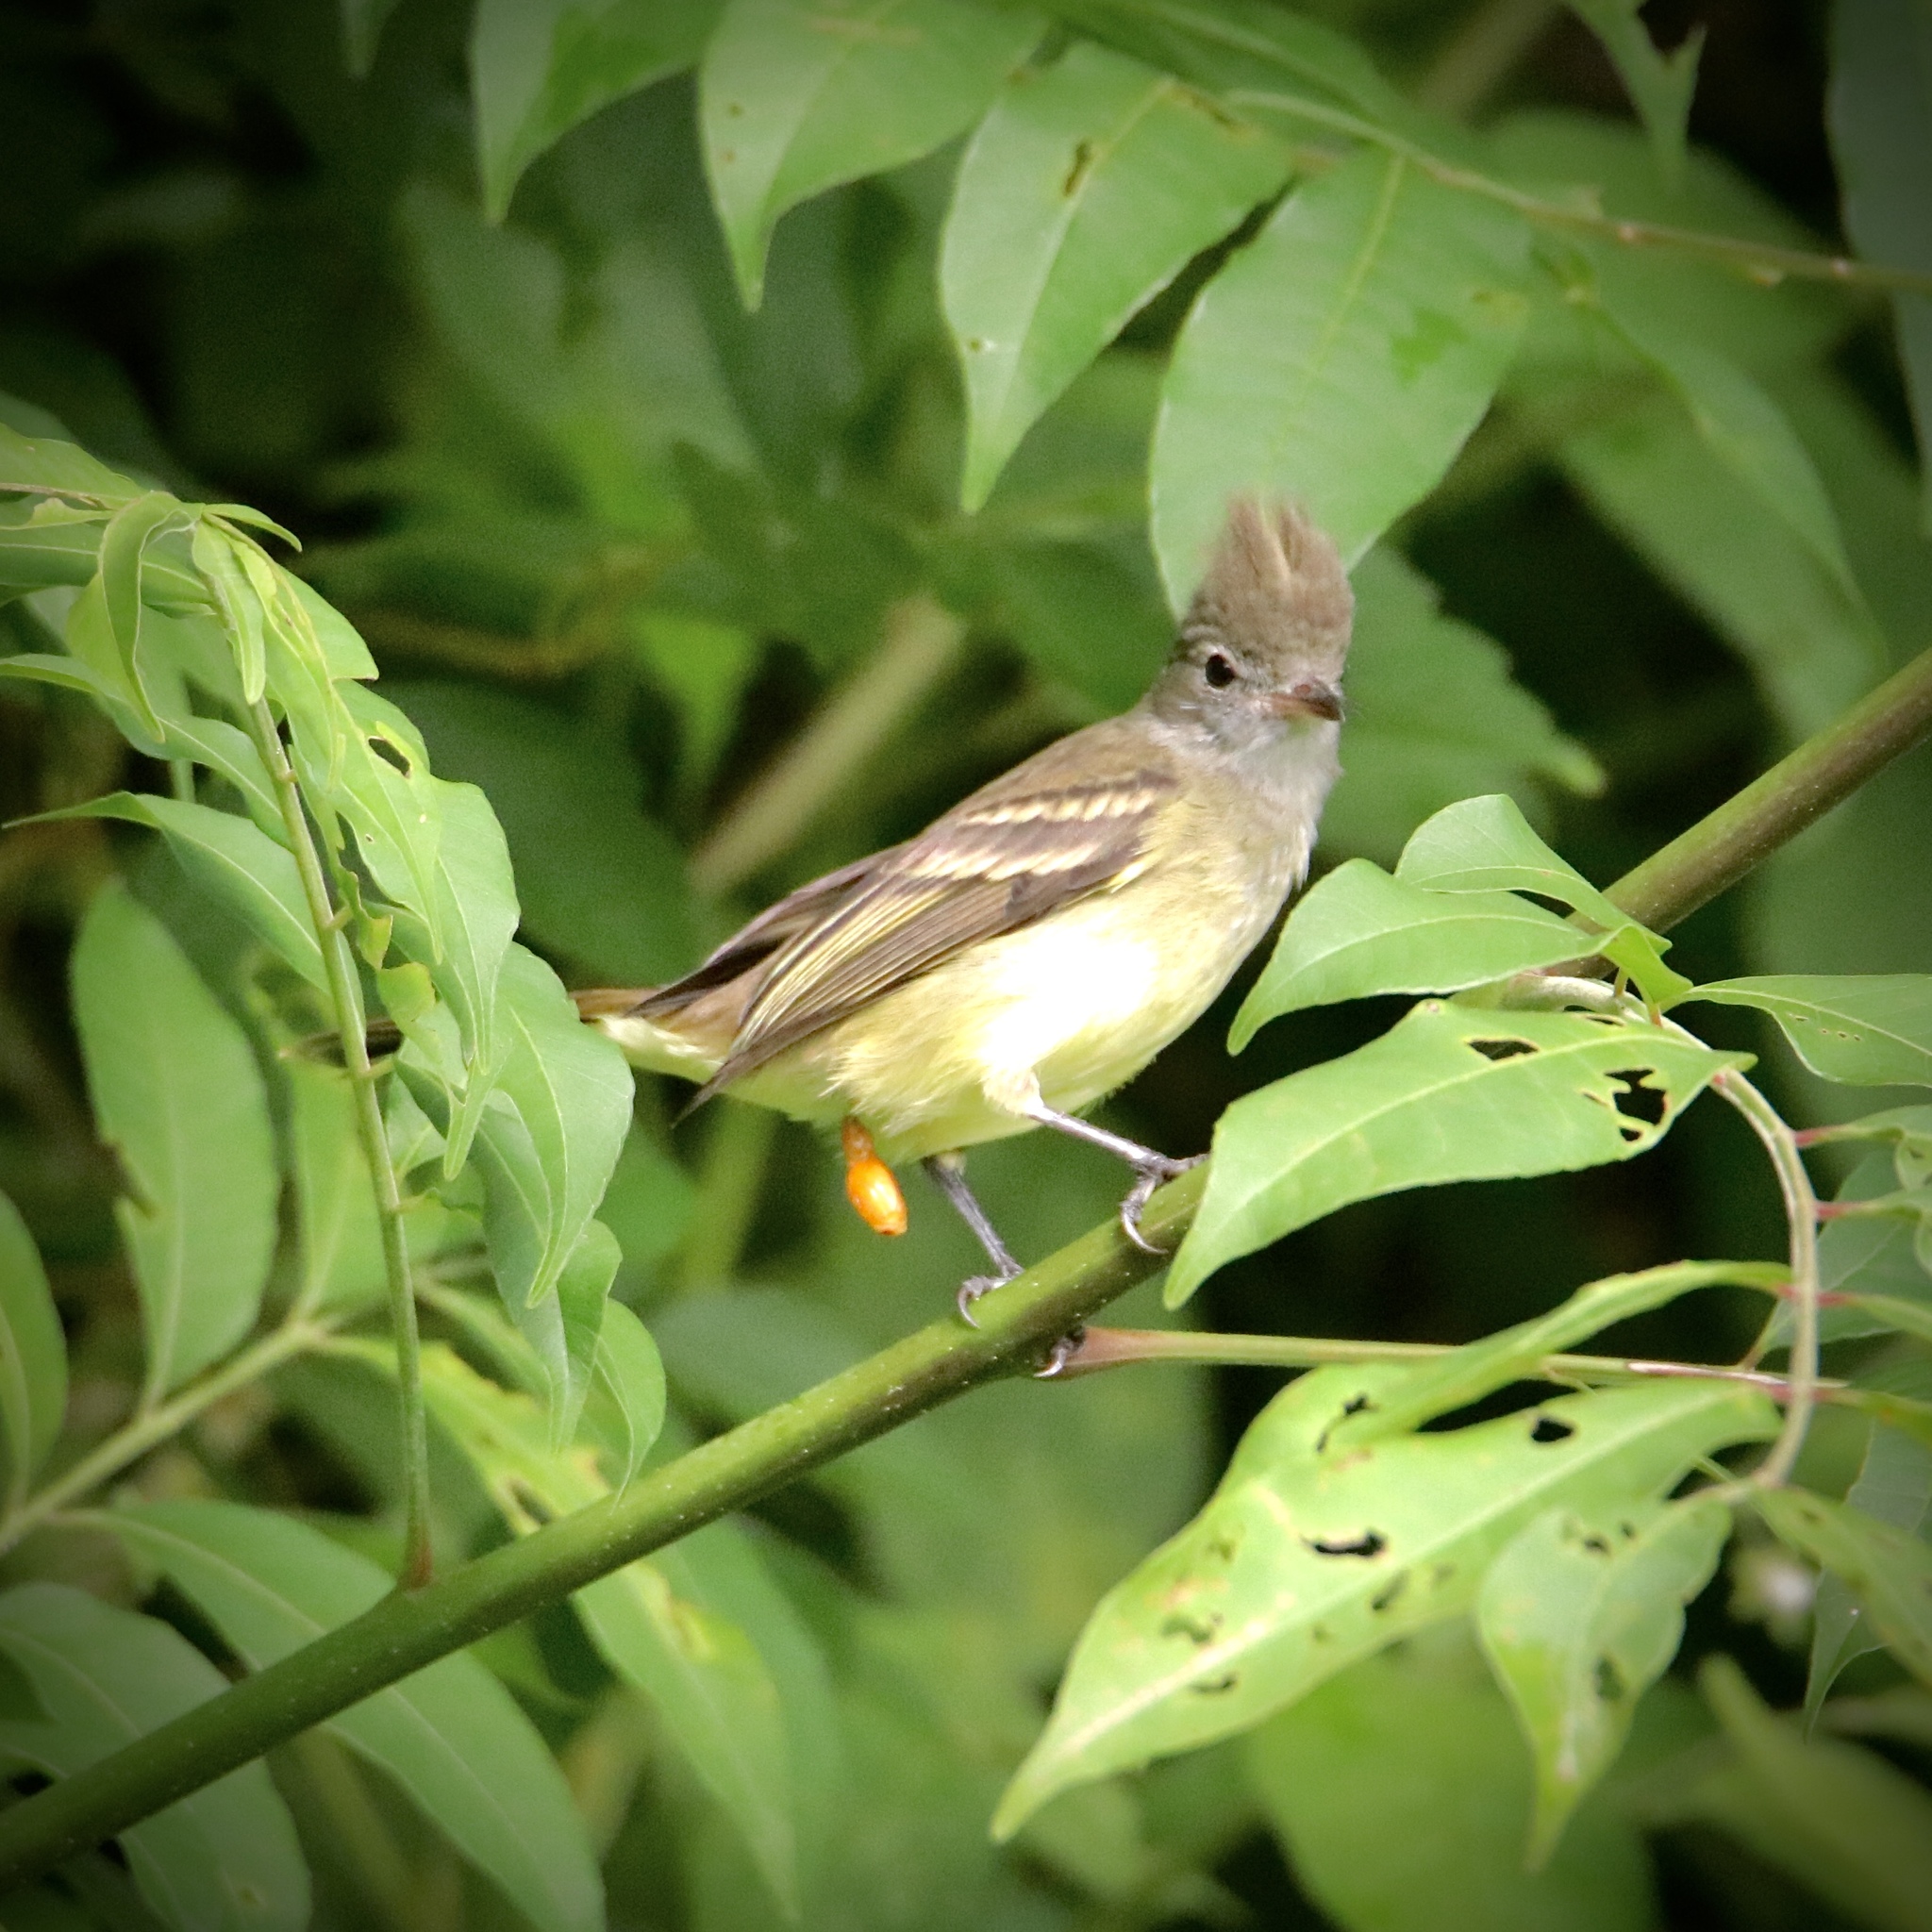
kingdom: Animalia
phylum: Chordata
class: Aves
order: Passeriformes
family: Tyrannidae
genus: Elaenia
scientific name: Elaenia flavogaster
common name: Yellow-bellied elaenia
